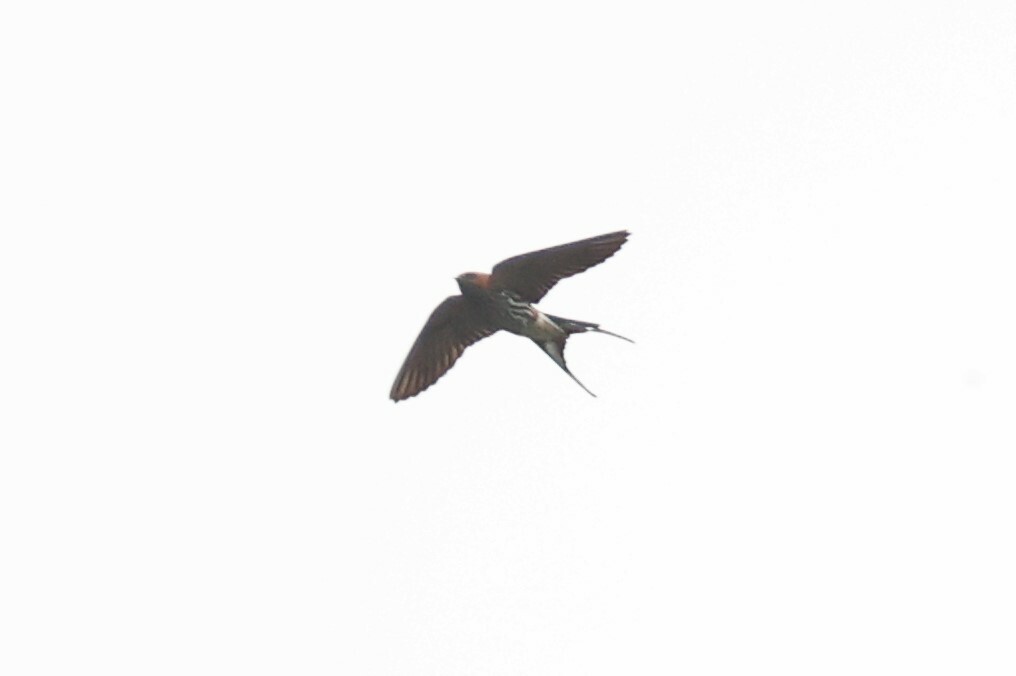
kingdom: Animalia
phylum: Chordata
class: Aves
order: Passeriformes
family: Hirundinidae
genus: Cecropis
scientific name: Cecropis abyssinica
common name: Lesser striped-swallow
